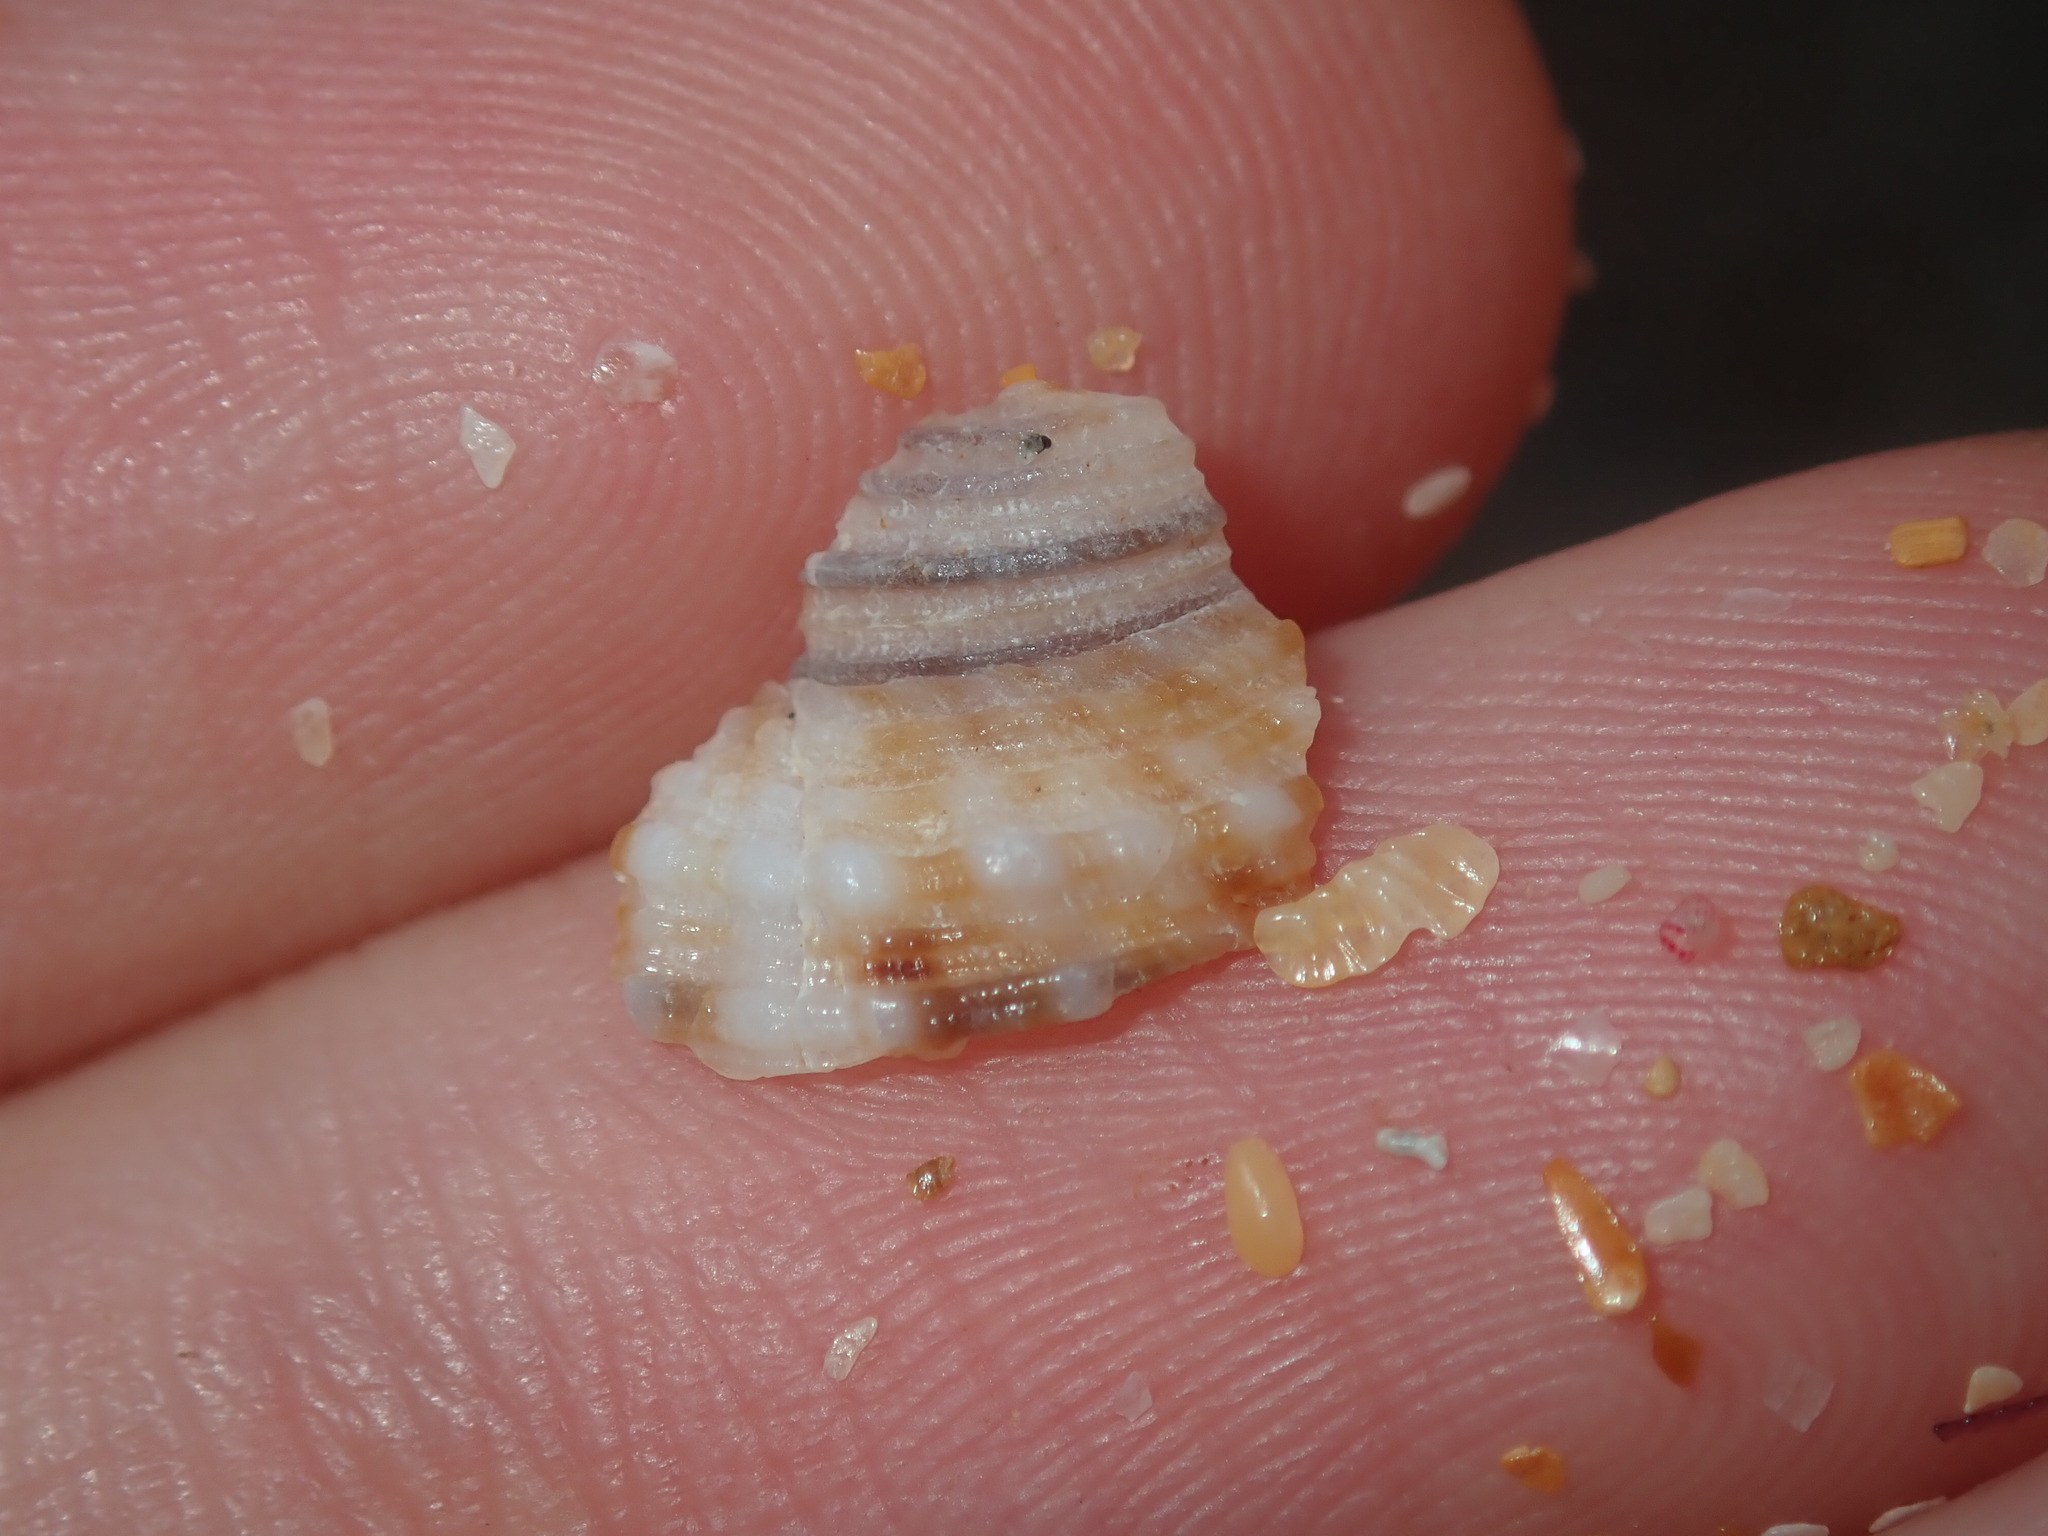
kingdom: Animalia
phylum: Mollusca
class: Gastropoda
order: Littorinimorpha
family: Cymatiidae
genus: Cabestana
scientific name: Cabestana spengleri
